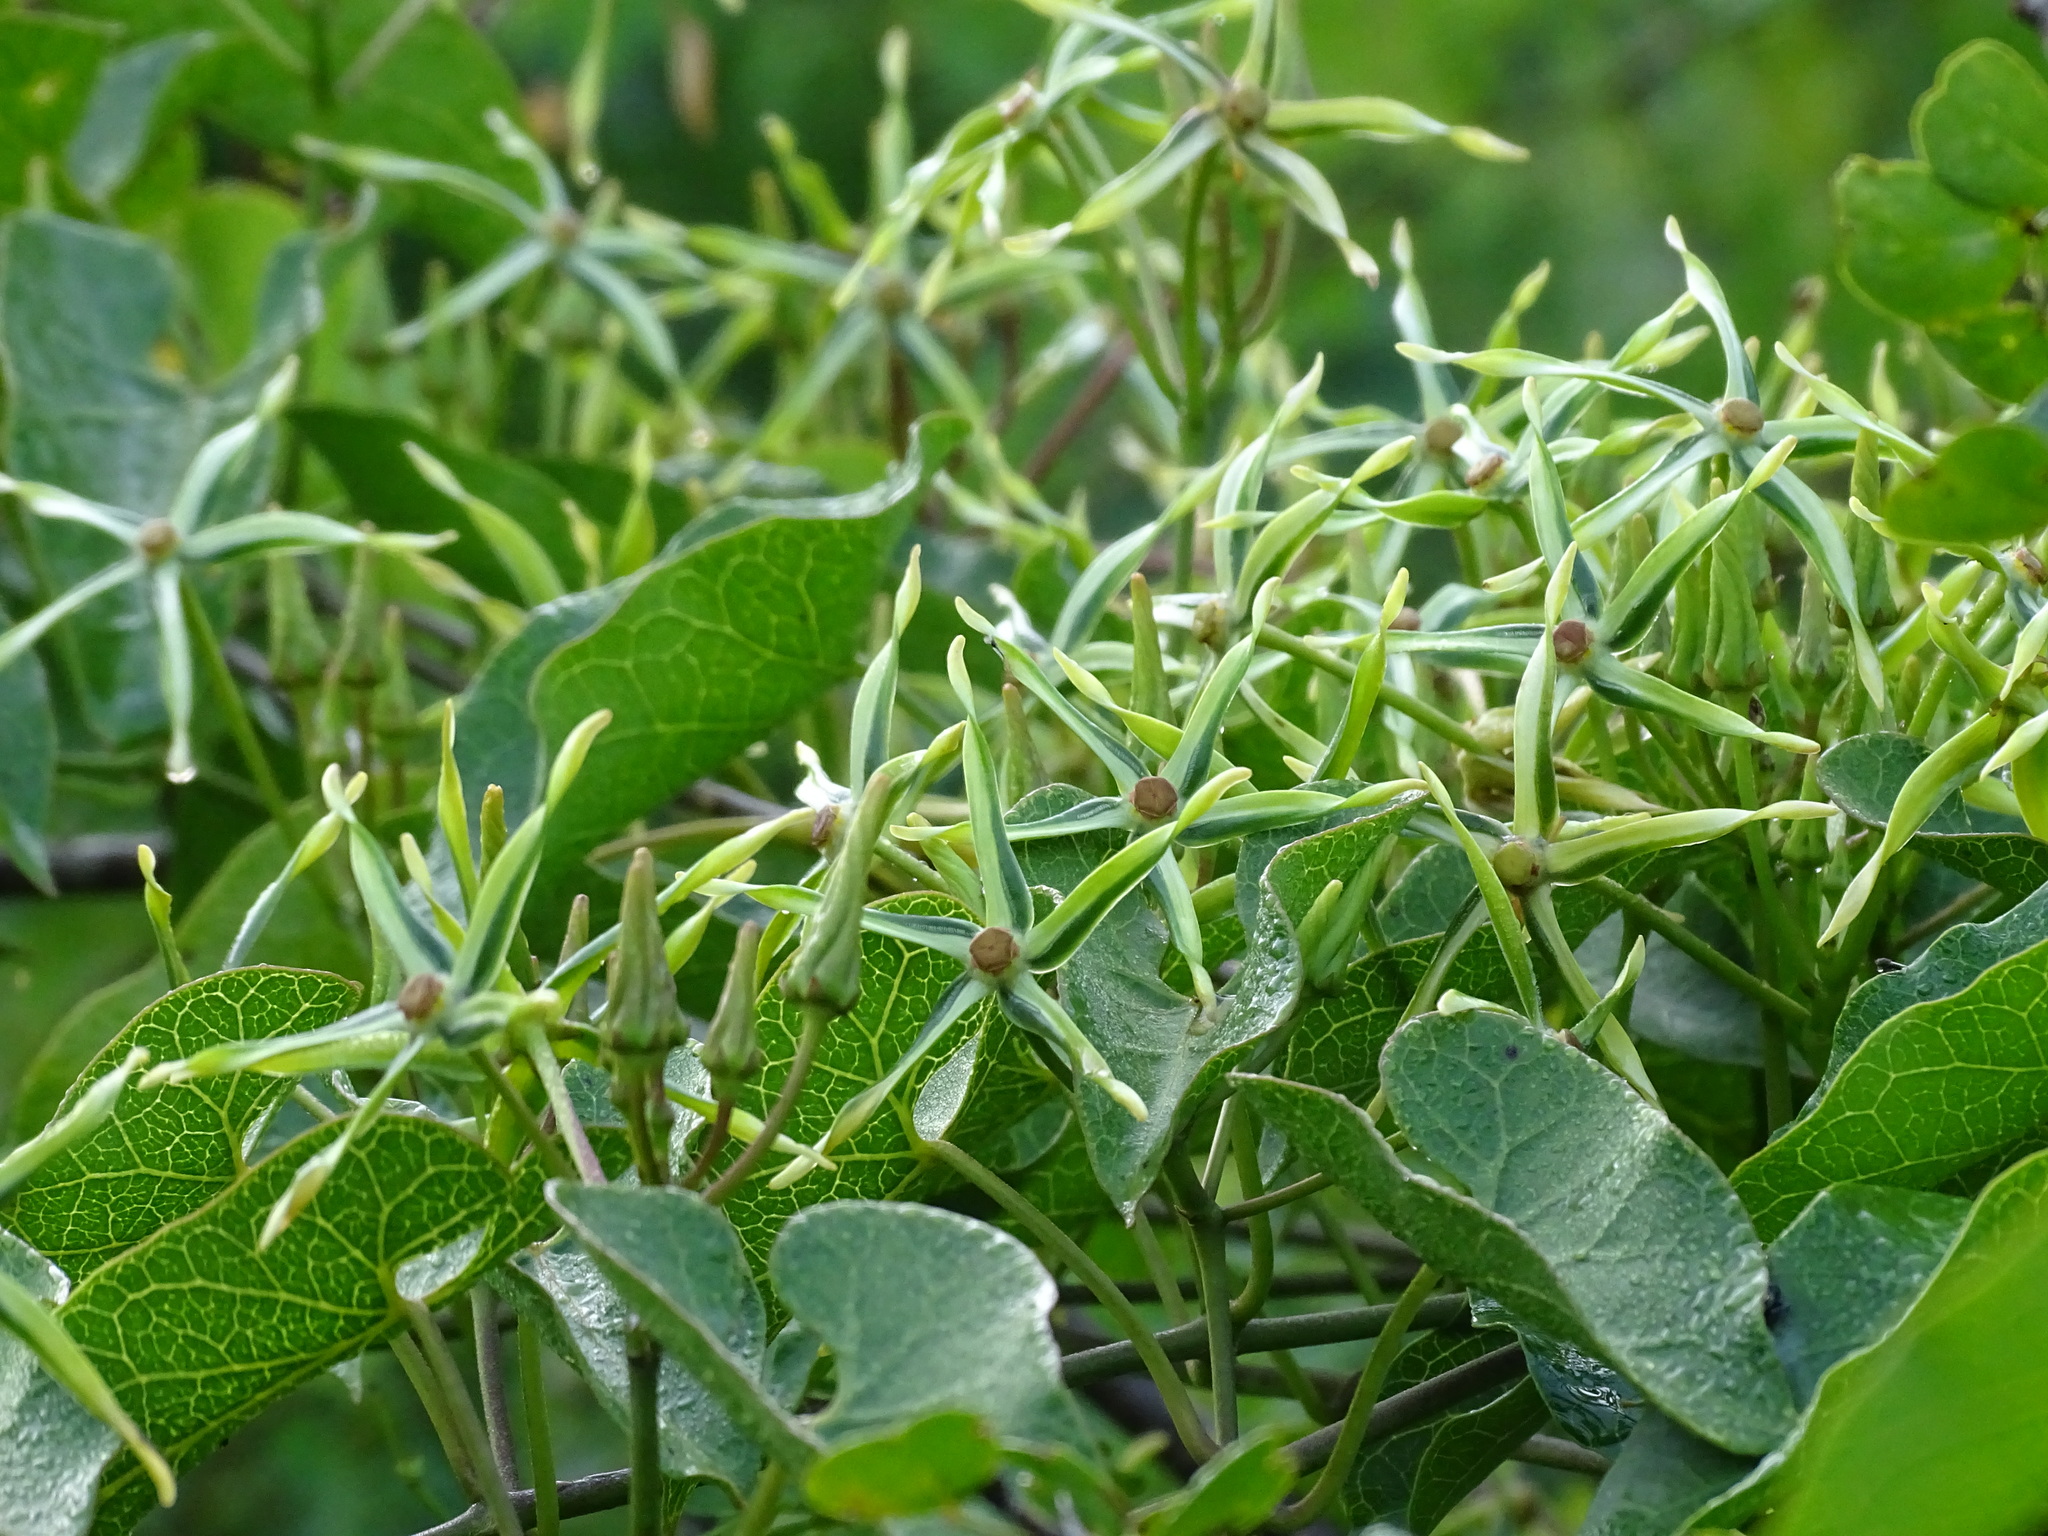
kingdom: Plantae
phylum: Tracheophyta
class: Magnoliopsida
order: Gentianales
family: Apocynaceae
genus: Gonolobus
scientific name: Gonolobus cteniophorus
